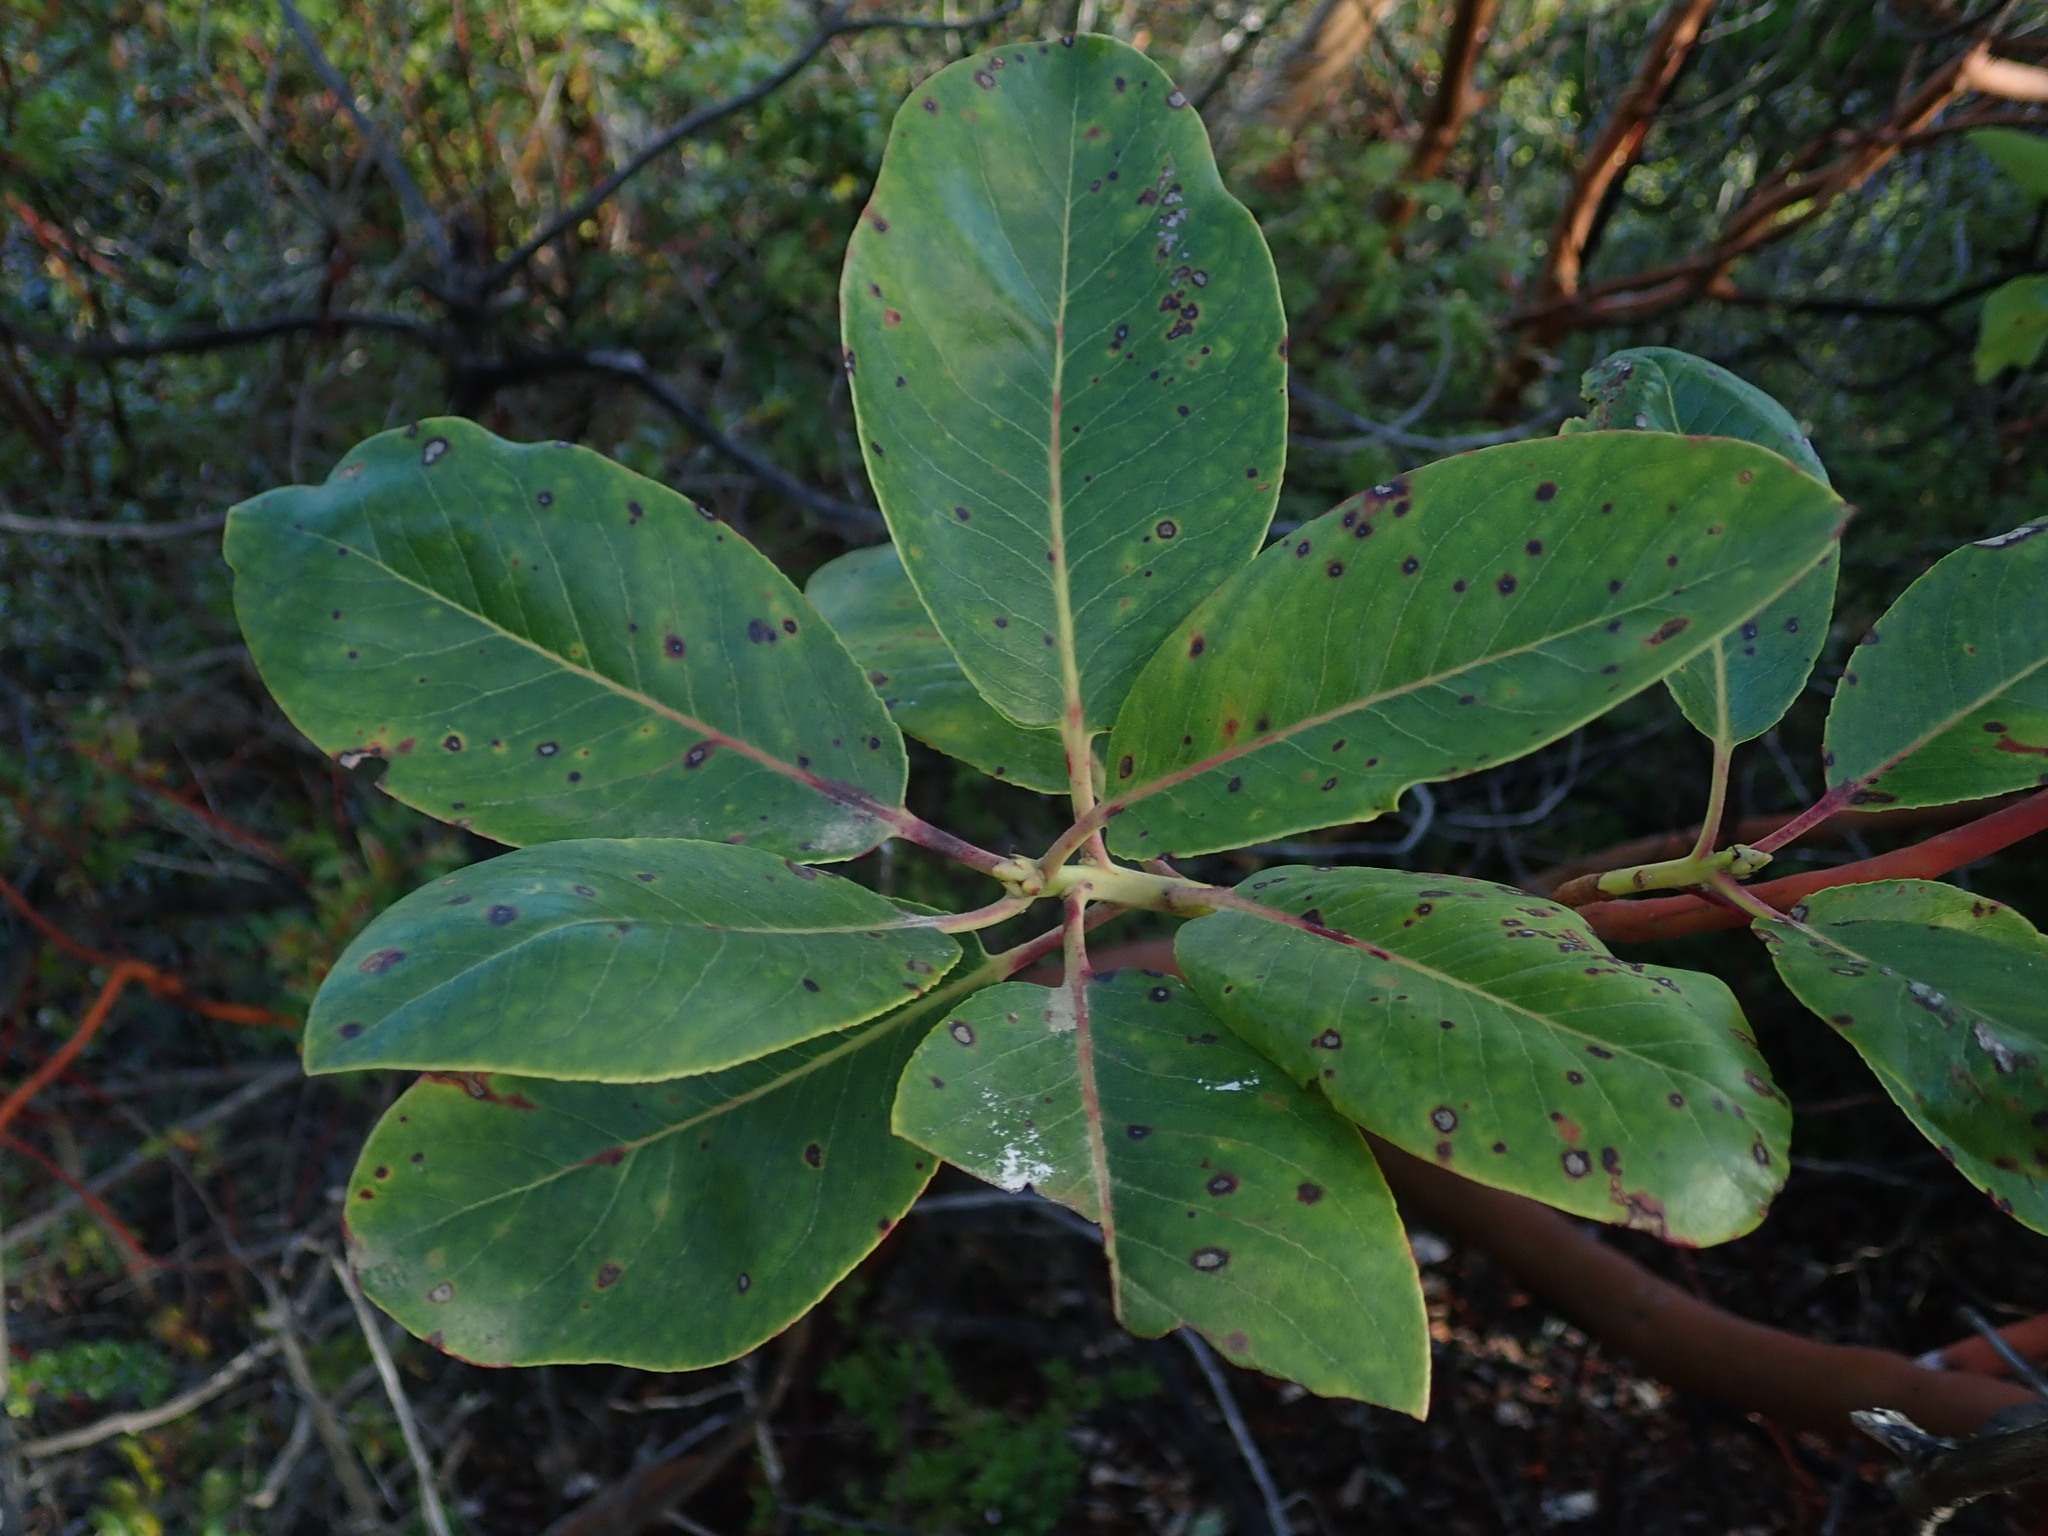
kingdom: Plantae
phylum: Tracheophyta
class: Magnoliopsida
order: Ericales
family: Ericaceae
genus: Arbutus
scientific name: Arbutus menziesii
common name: Pacific madrone
